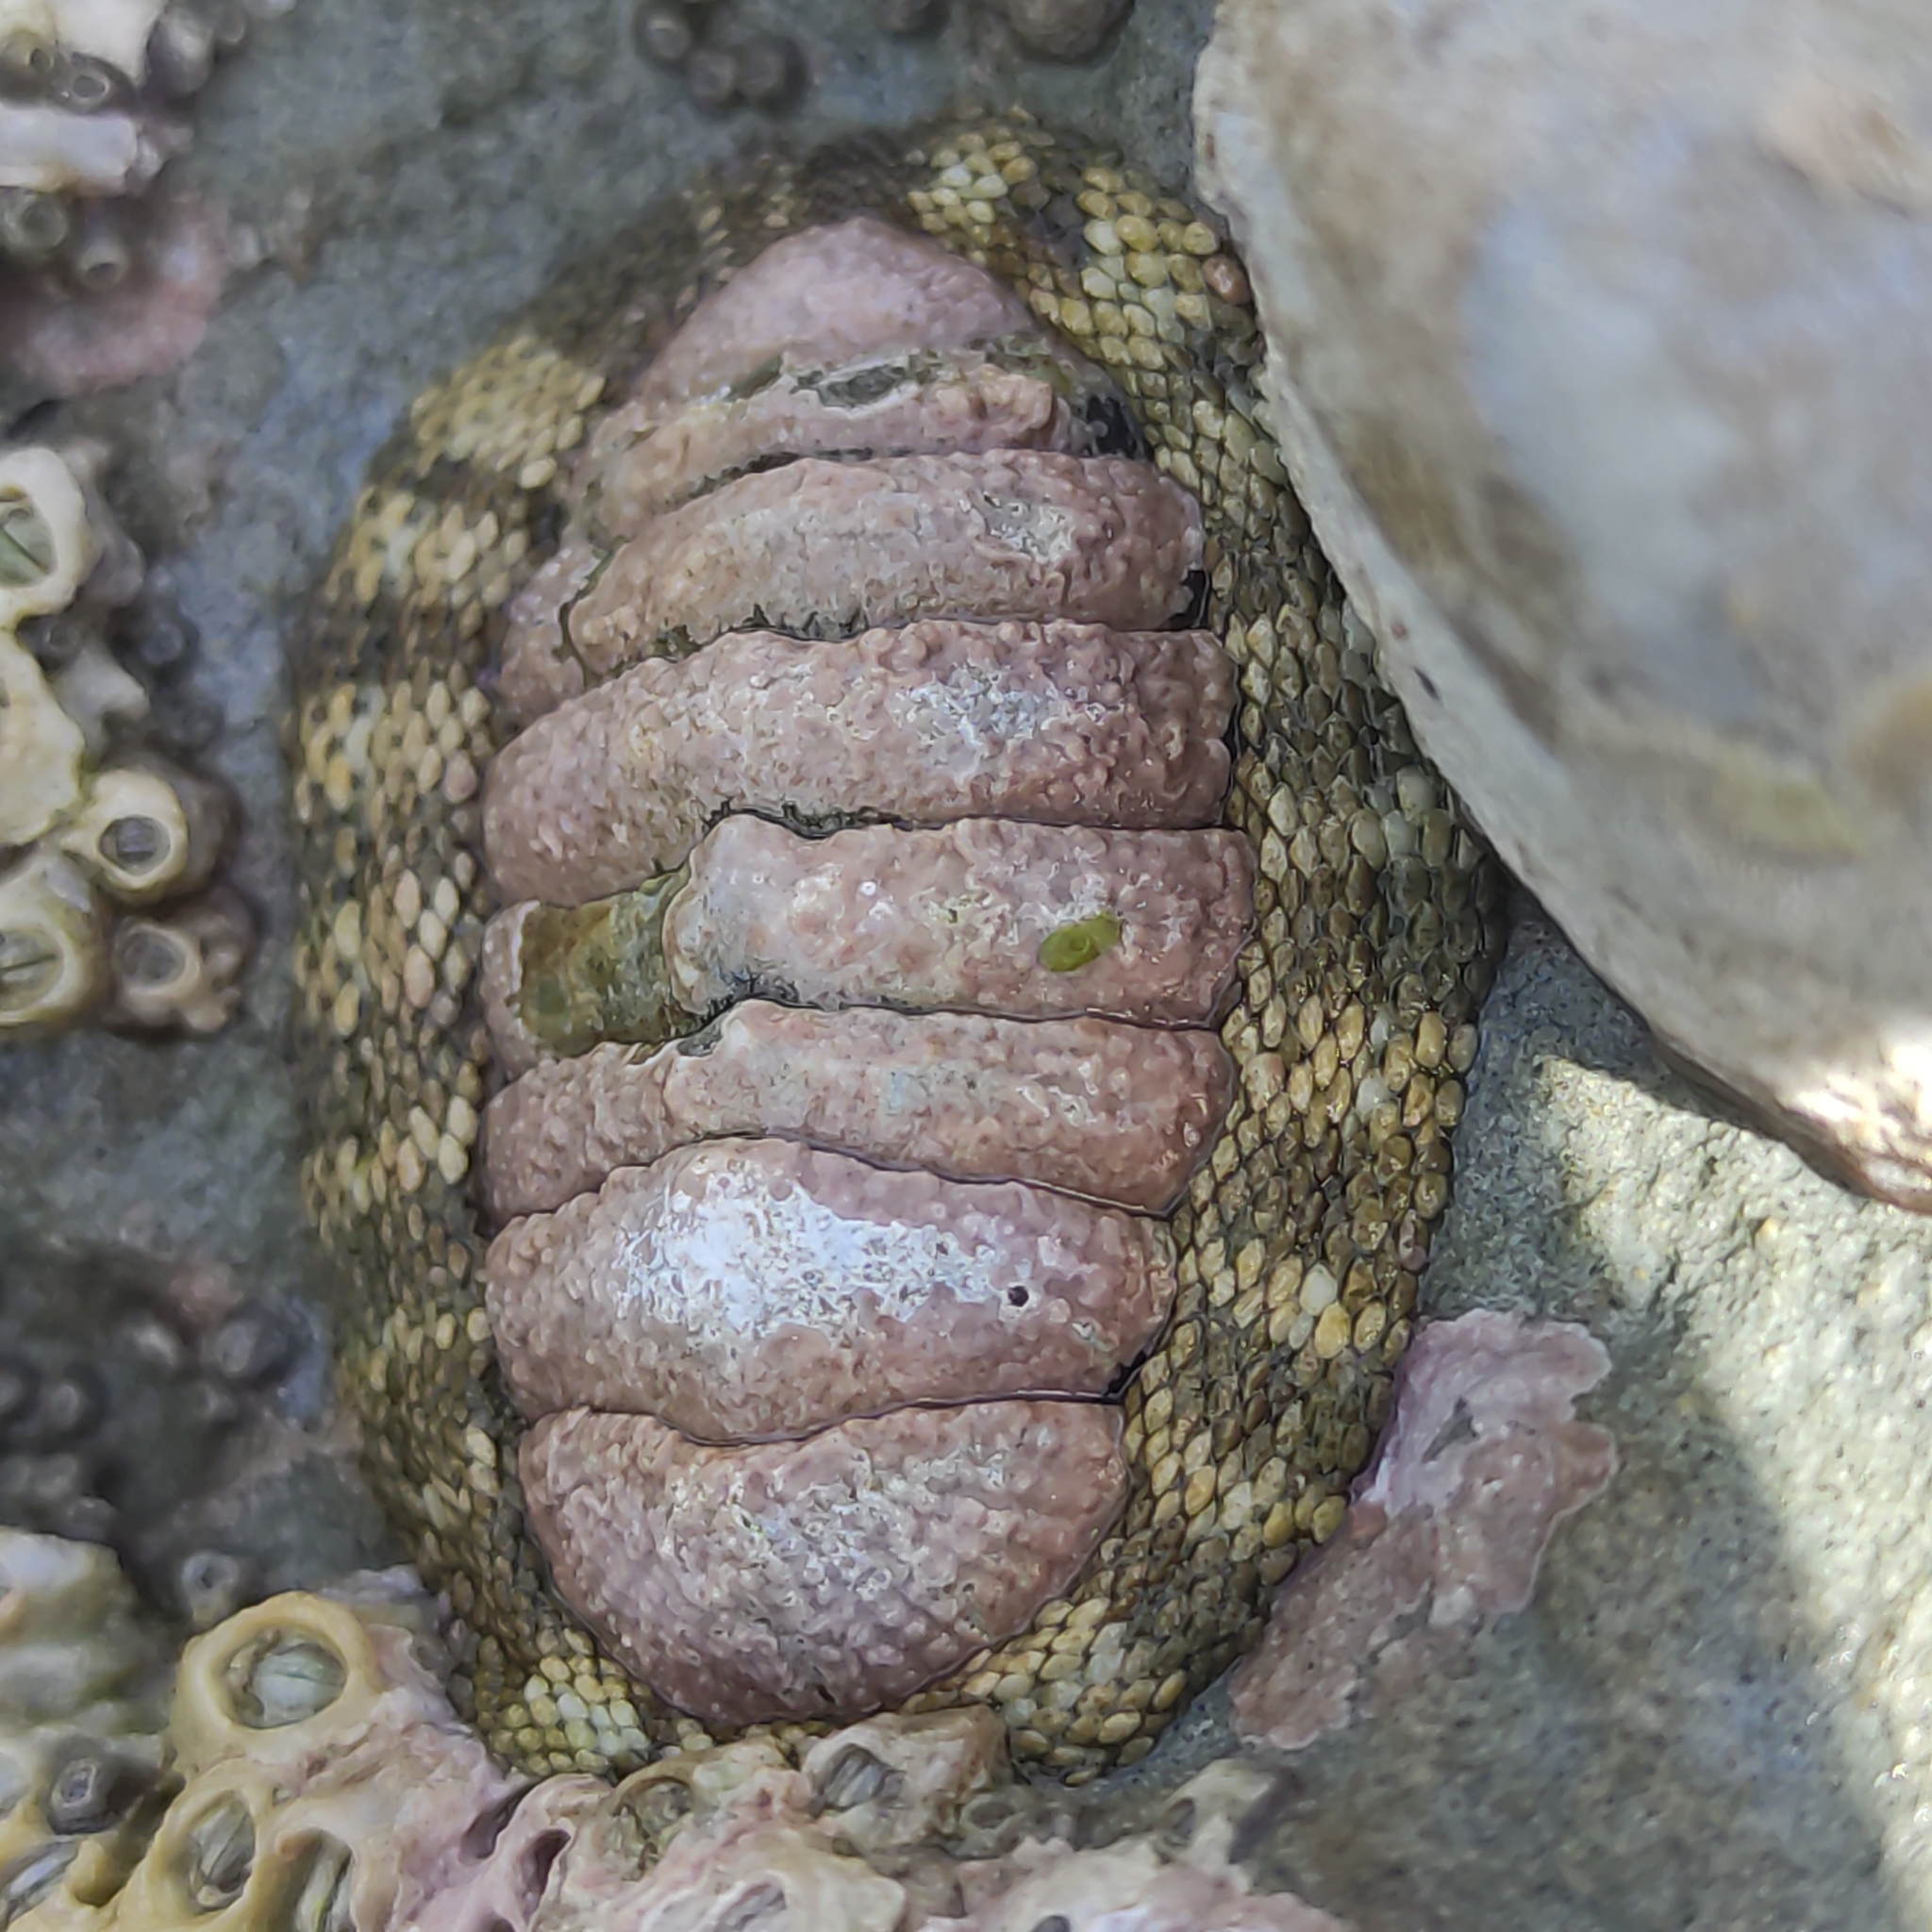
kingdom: Animalia
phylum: Mollusca
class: Polyplacophora
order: Chitonida
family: Chitonidae
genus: Sypharochiton
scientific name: Sypharochiton pelliserpentis
